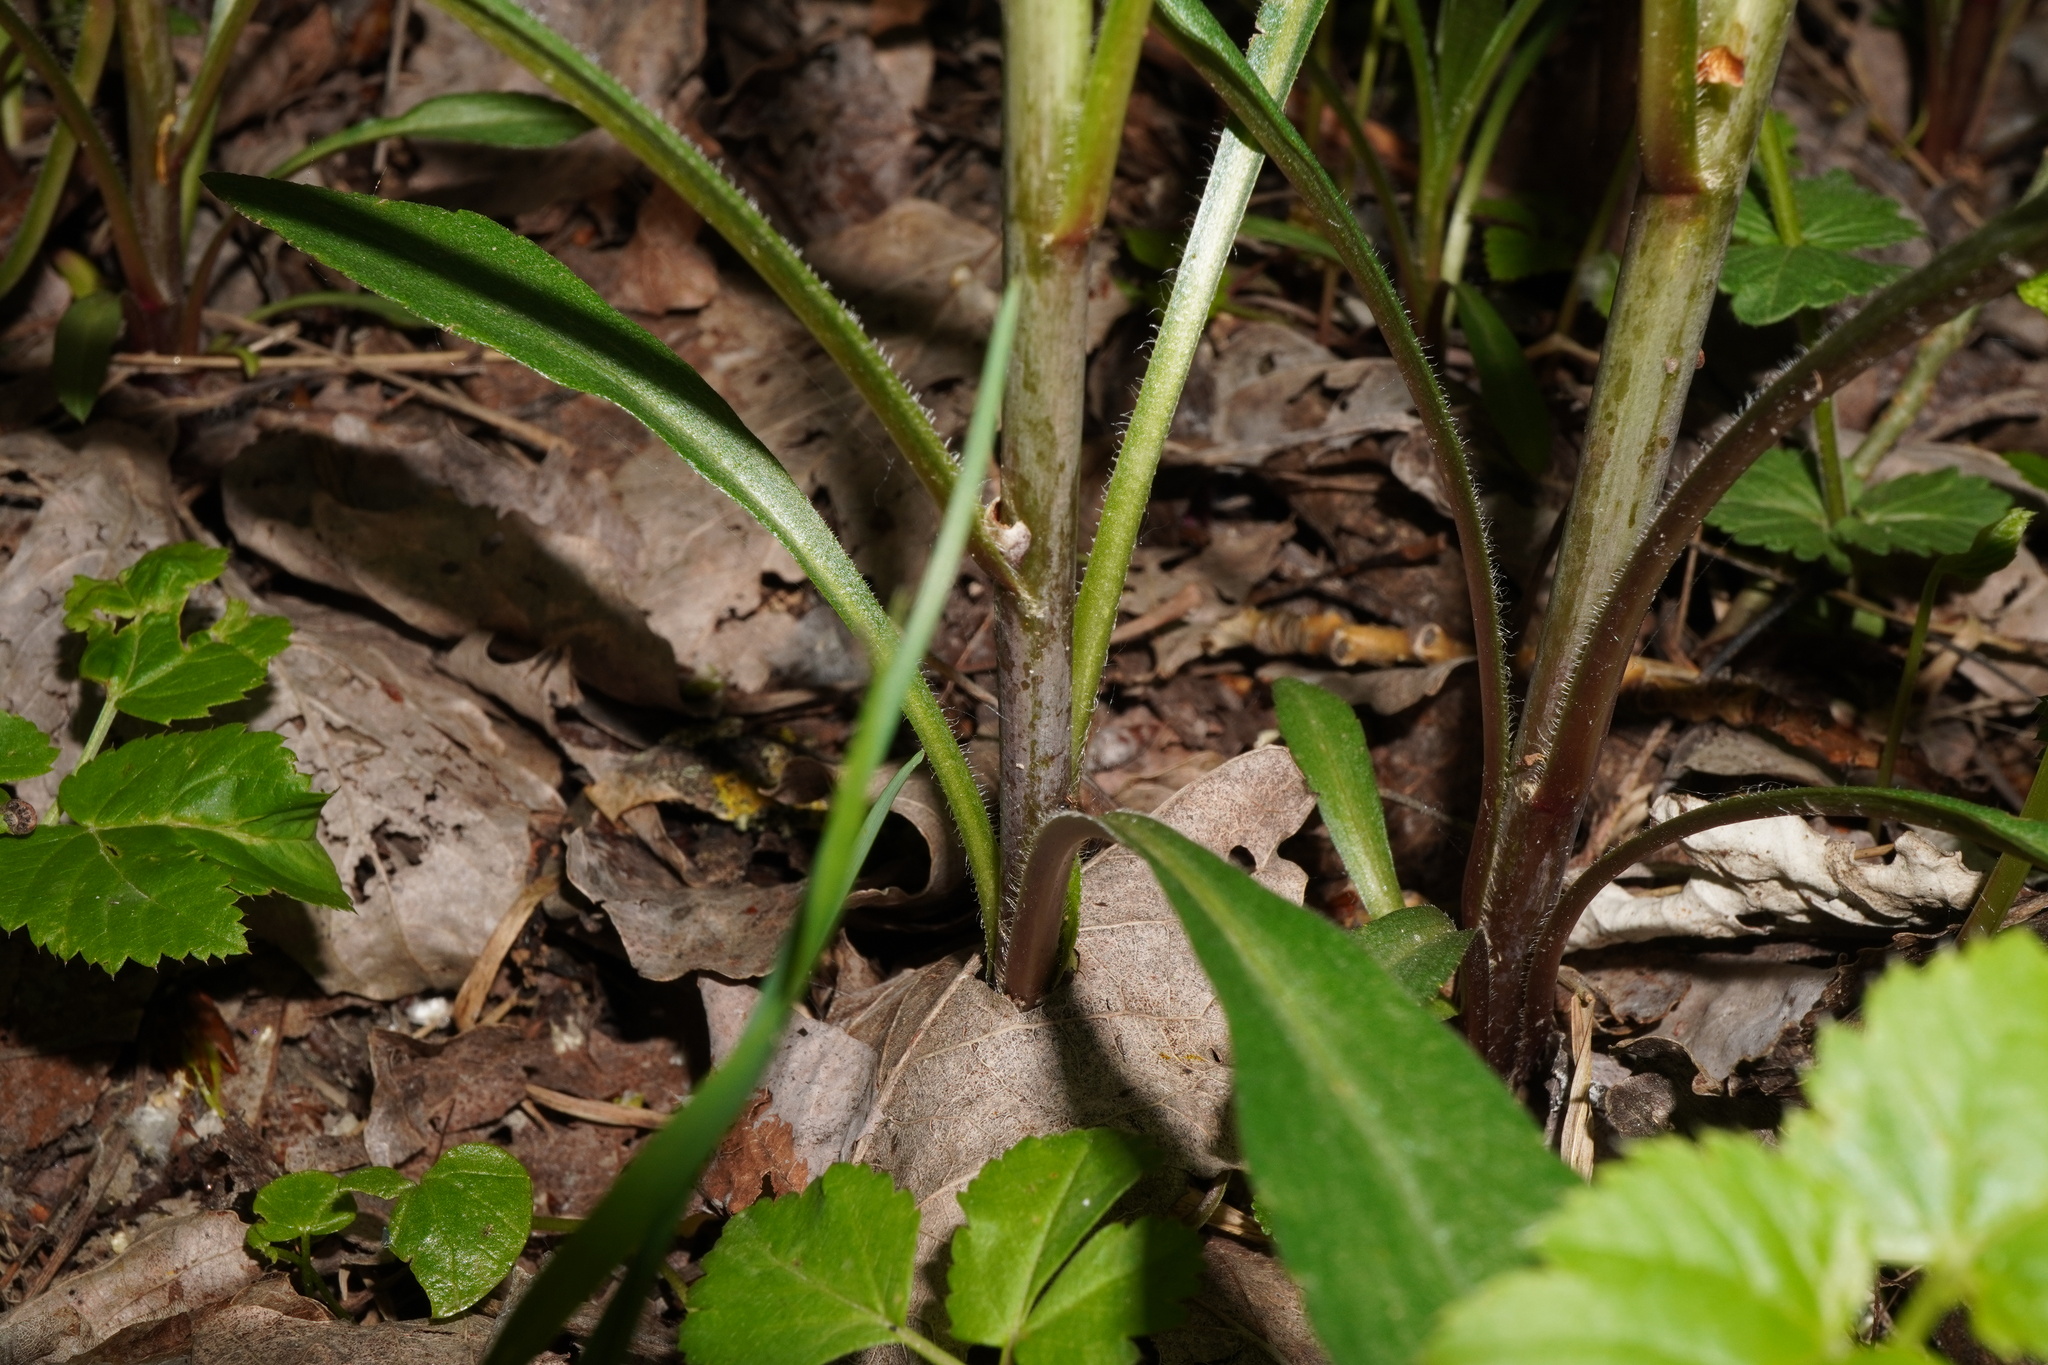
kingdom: Plantae
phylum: Tracheophyta
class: Magnoliopsida
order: Asterales
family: Asteraceae
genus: Solidago
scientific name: Solidago gigantea
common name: Giant goldenrod
